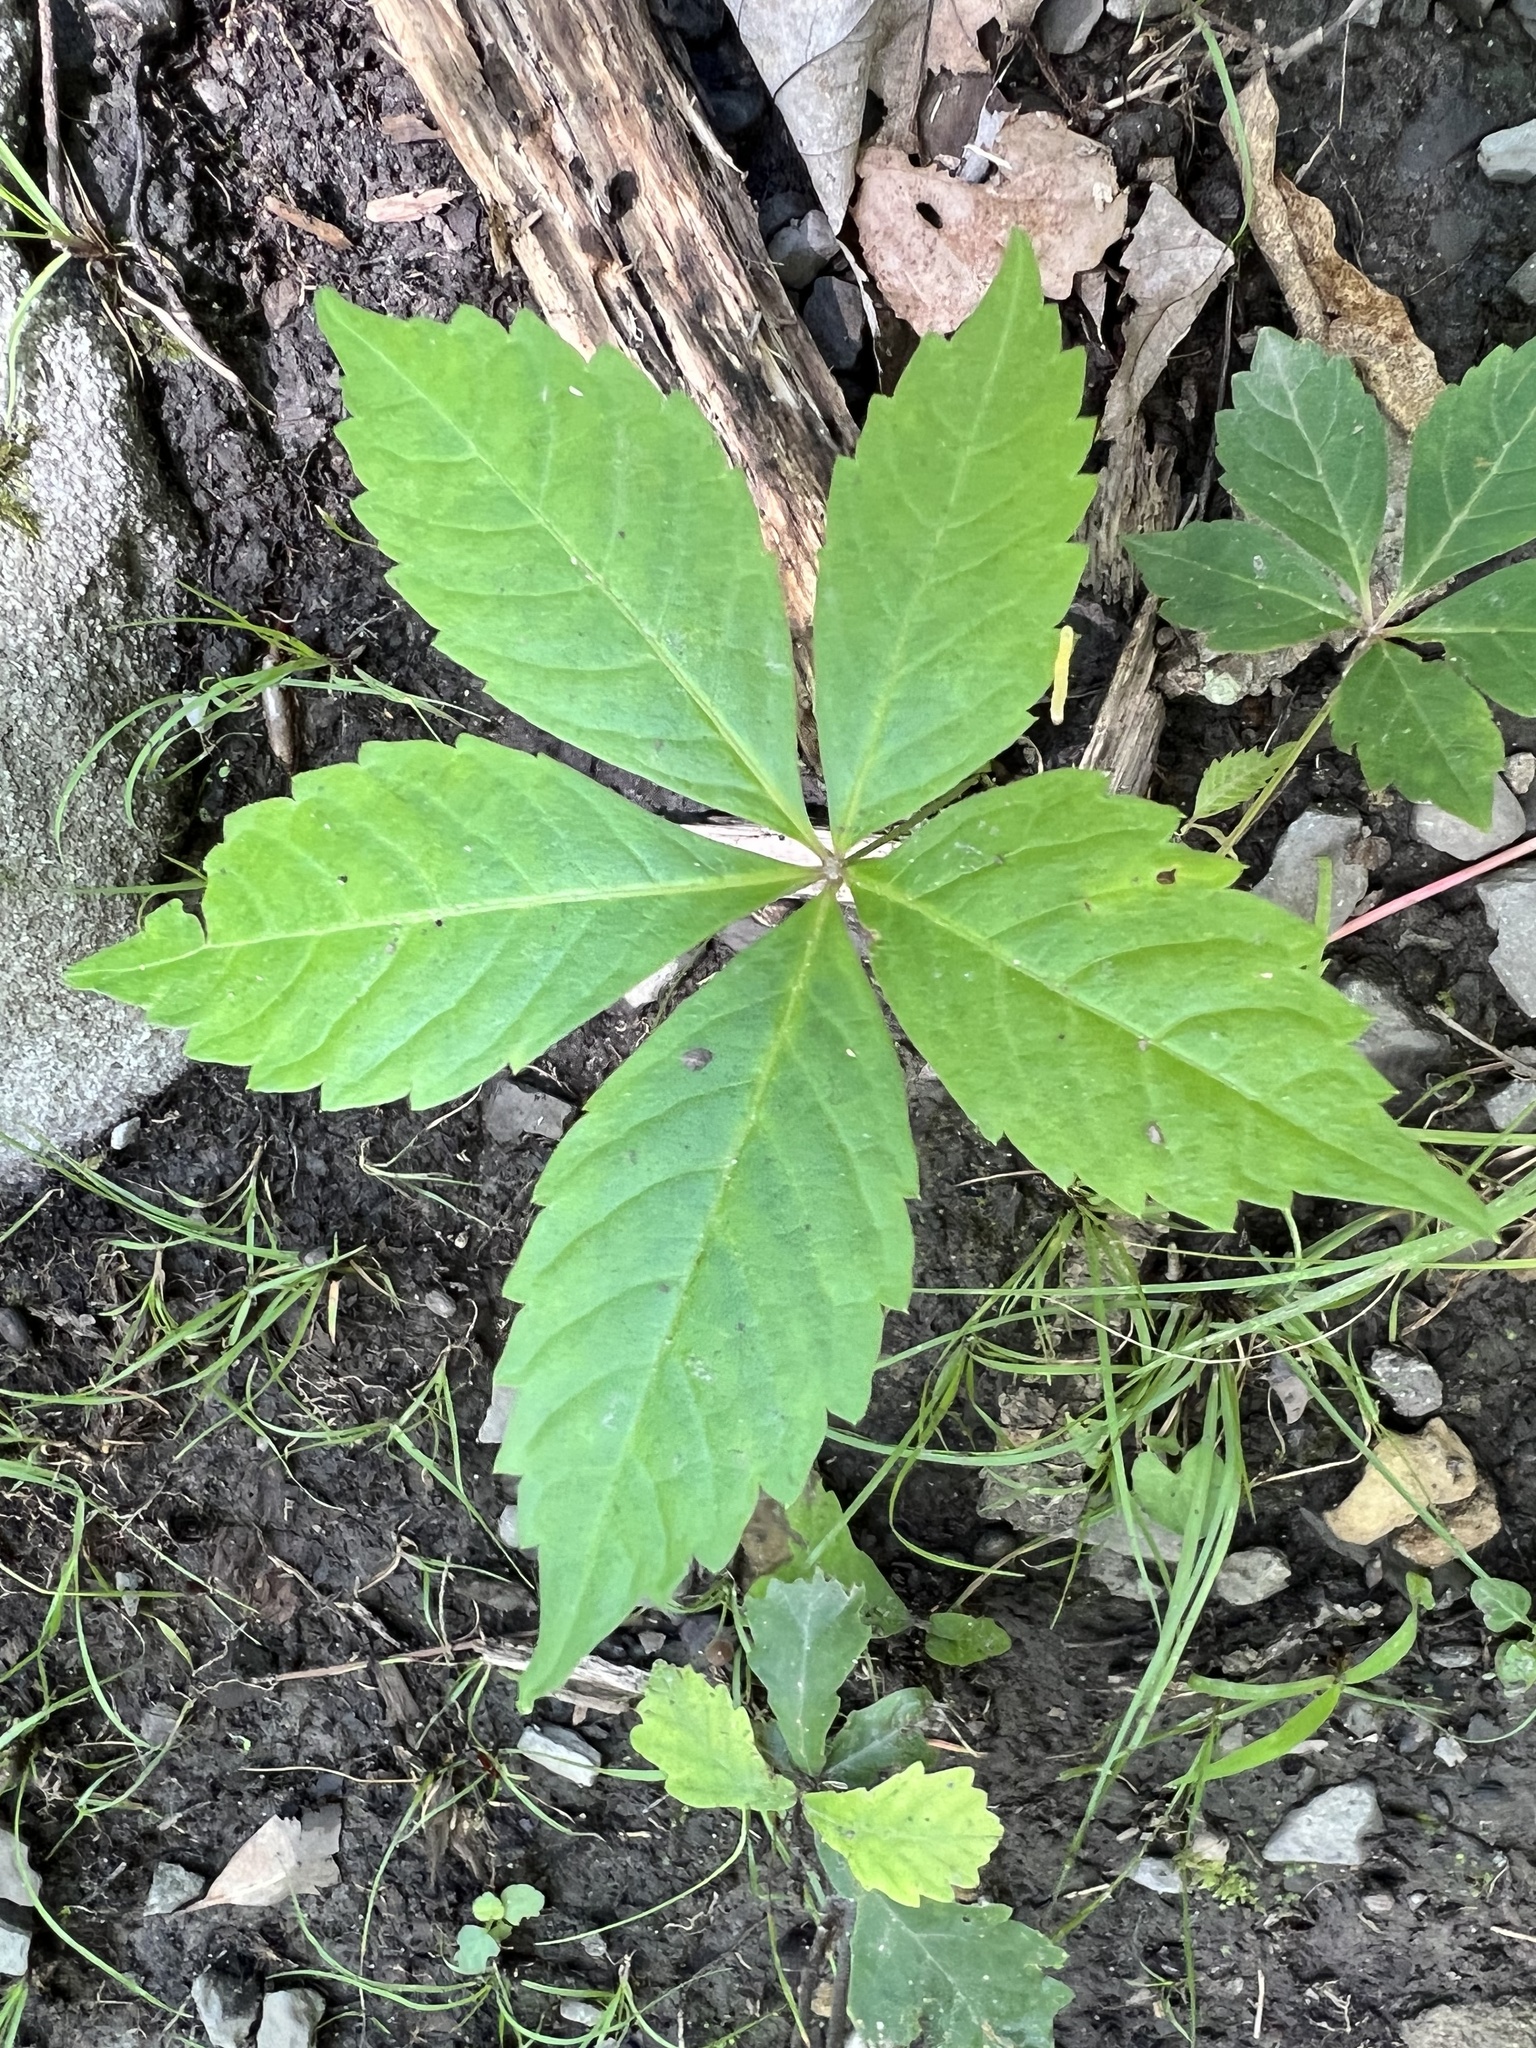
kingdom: Plantae
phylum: Tracheophyta
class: Magnoliopsida
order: Vitales
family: Vitaceae
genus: Parthenocissus
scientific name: Parthenocissus quinquefolia
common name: Virginia-creeper
